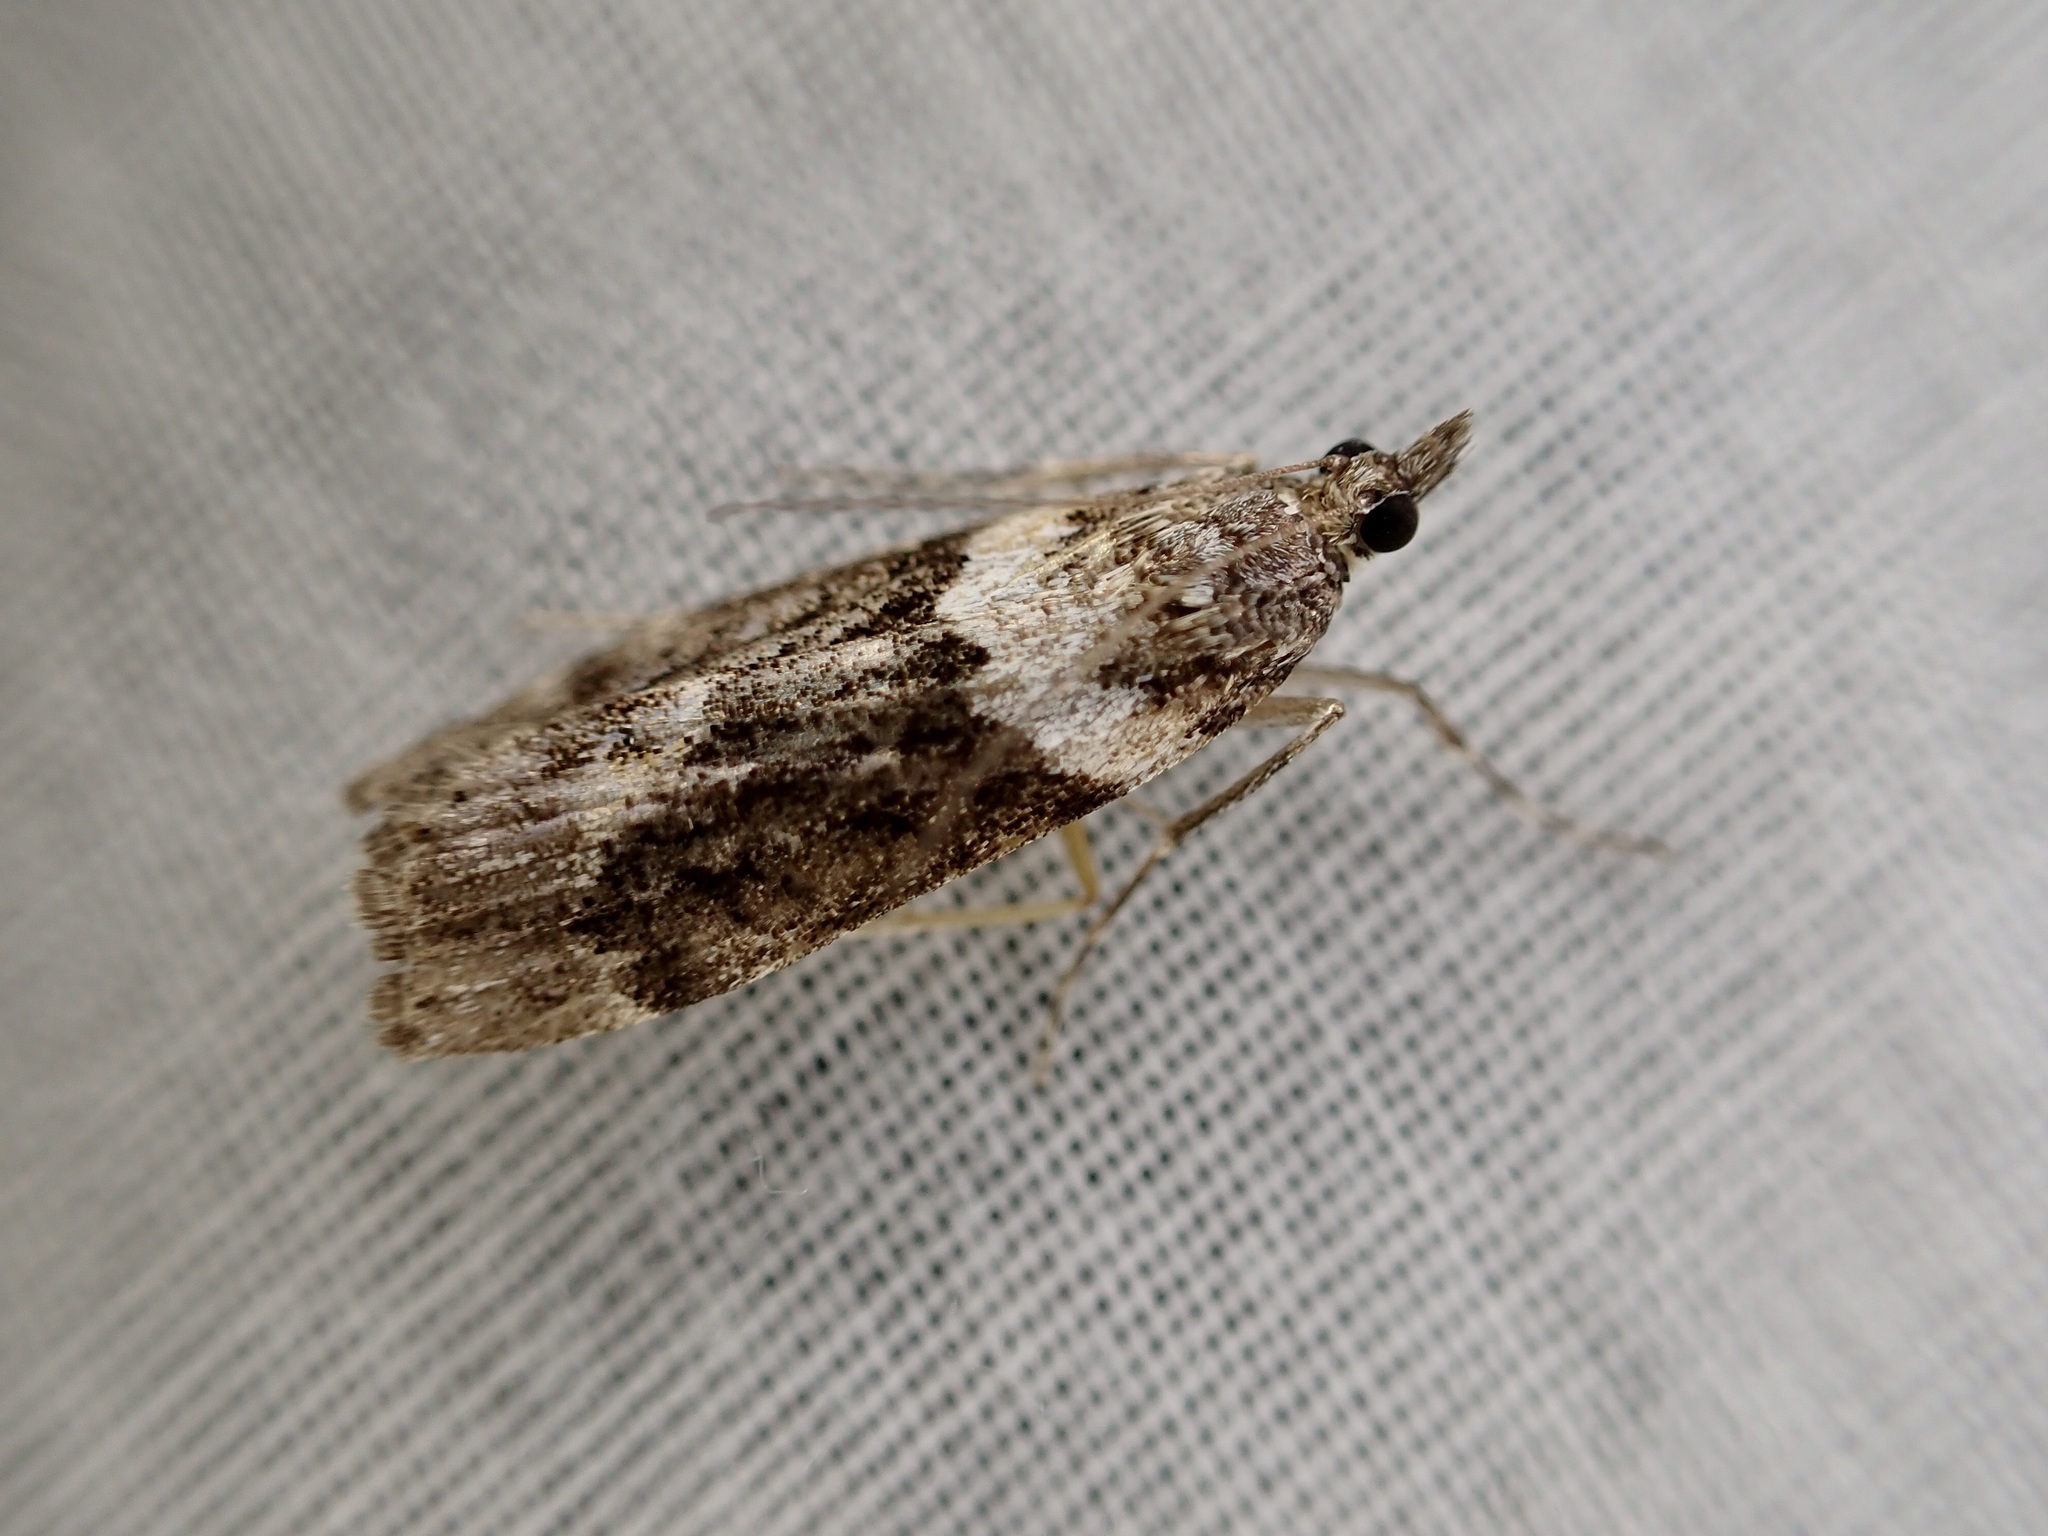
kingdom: Animalia
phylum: Arthropoda
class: Insecta
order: Lepidoptera
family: Crambidae
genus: Eudonia
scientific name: Eudonia submarginalis
